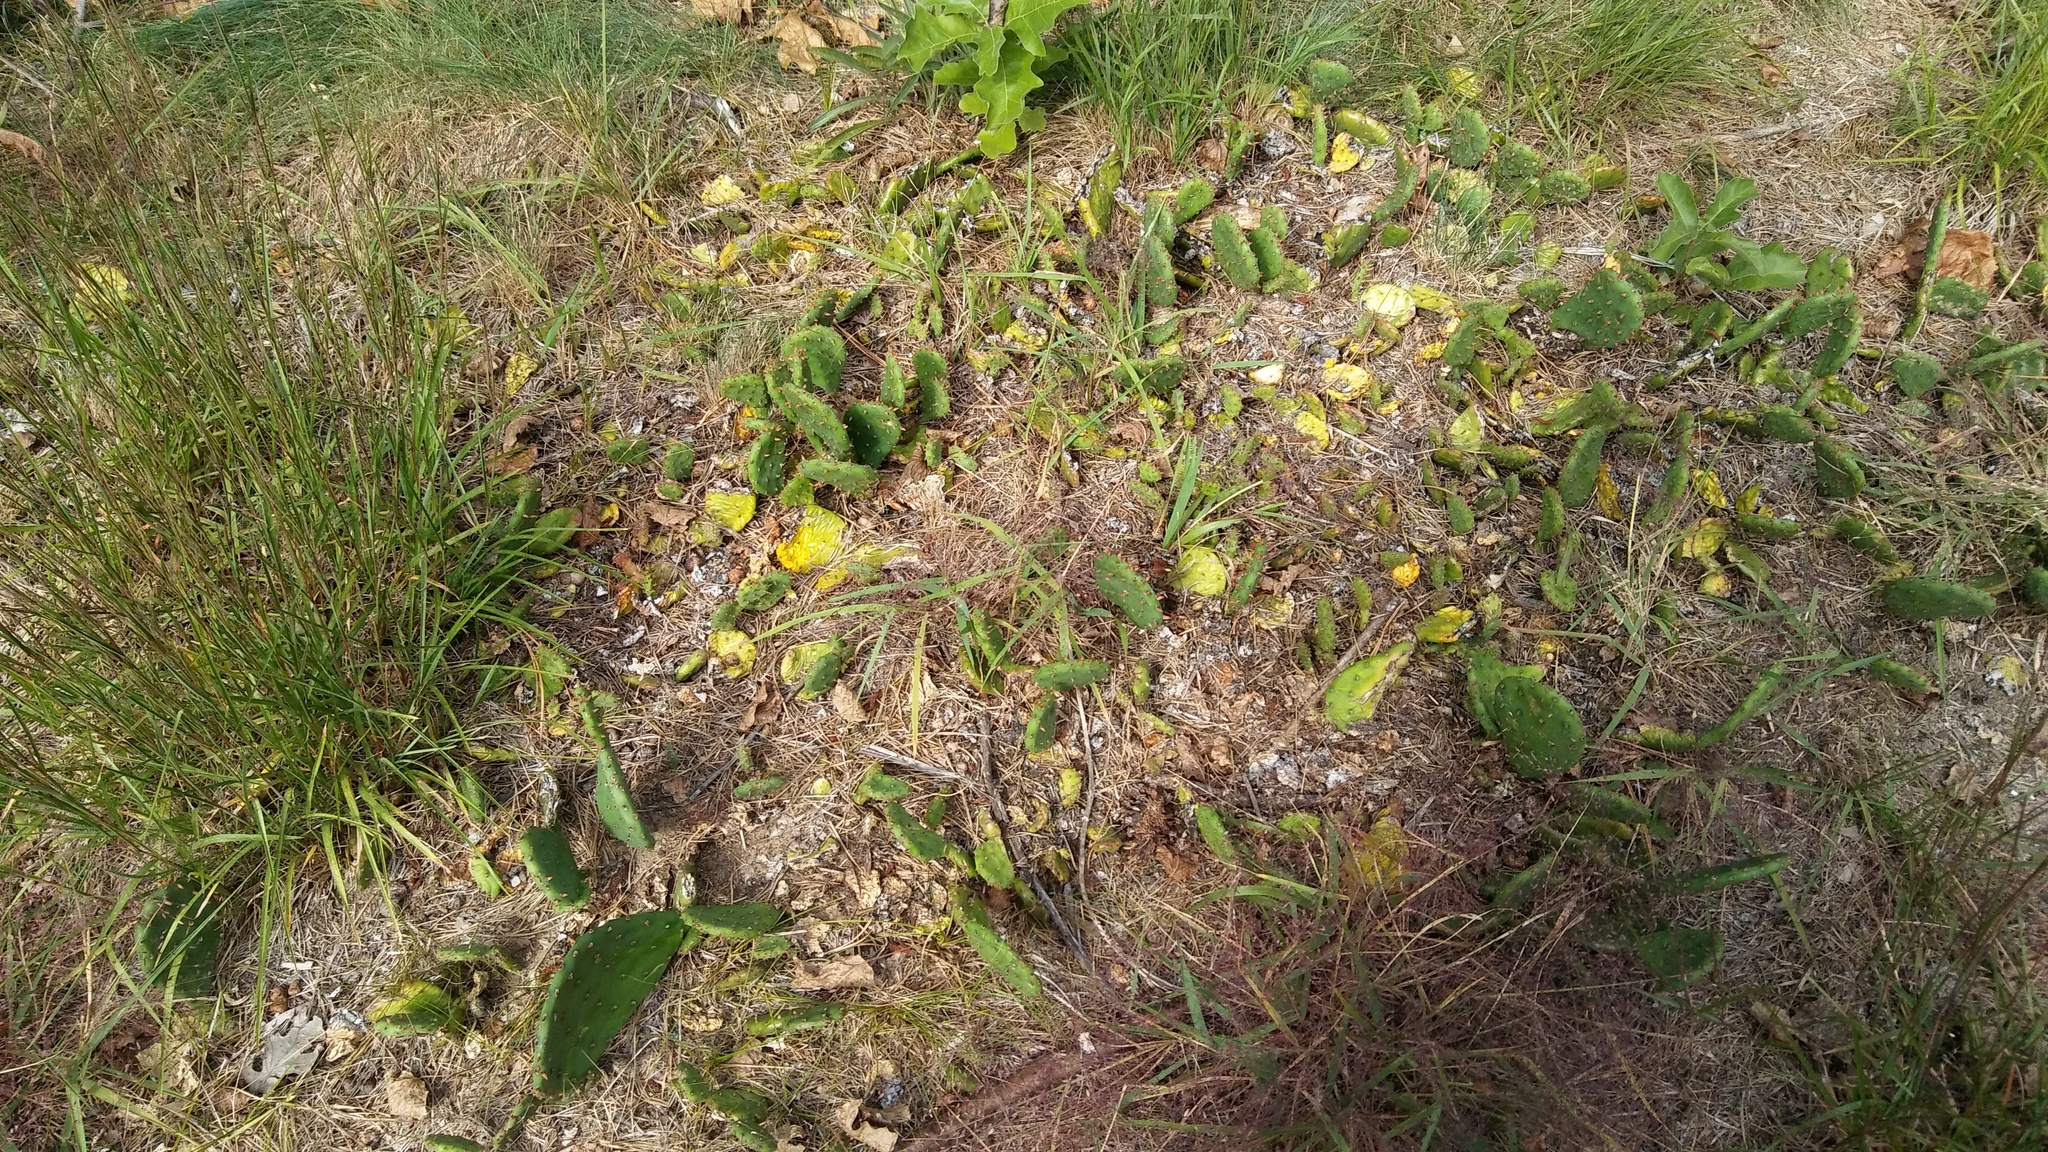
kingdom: Plantae
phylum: Tracheophyta
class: Magnoliopsida
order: Caryophyllales
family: Cactaceae
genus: Opuntia
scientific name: Opuntia humifusa
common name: Eastern prickly-pear
